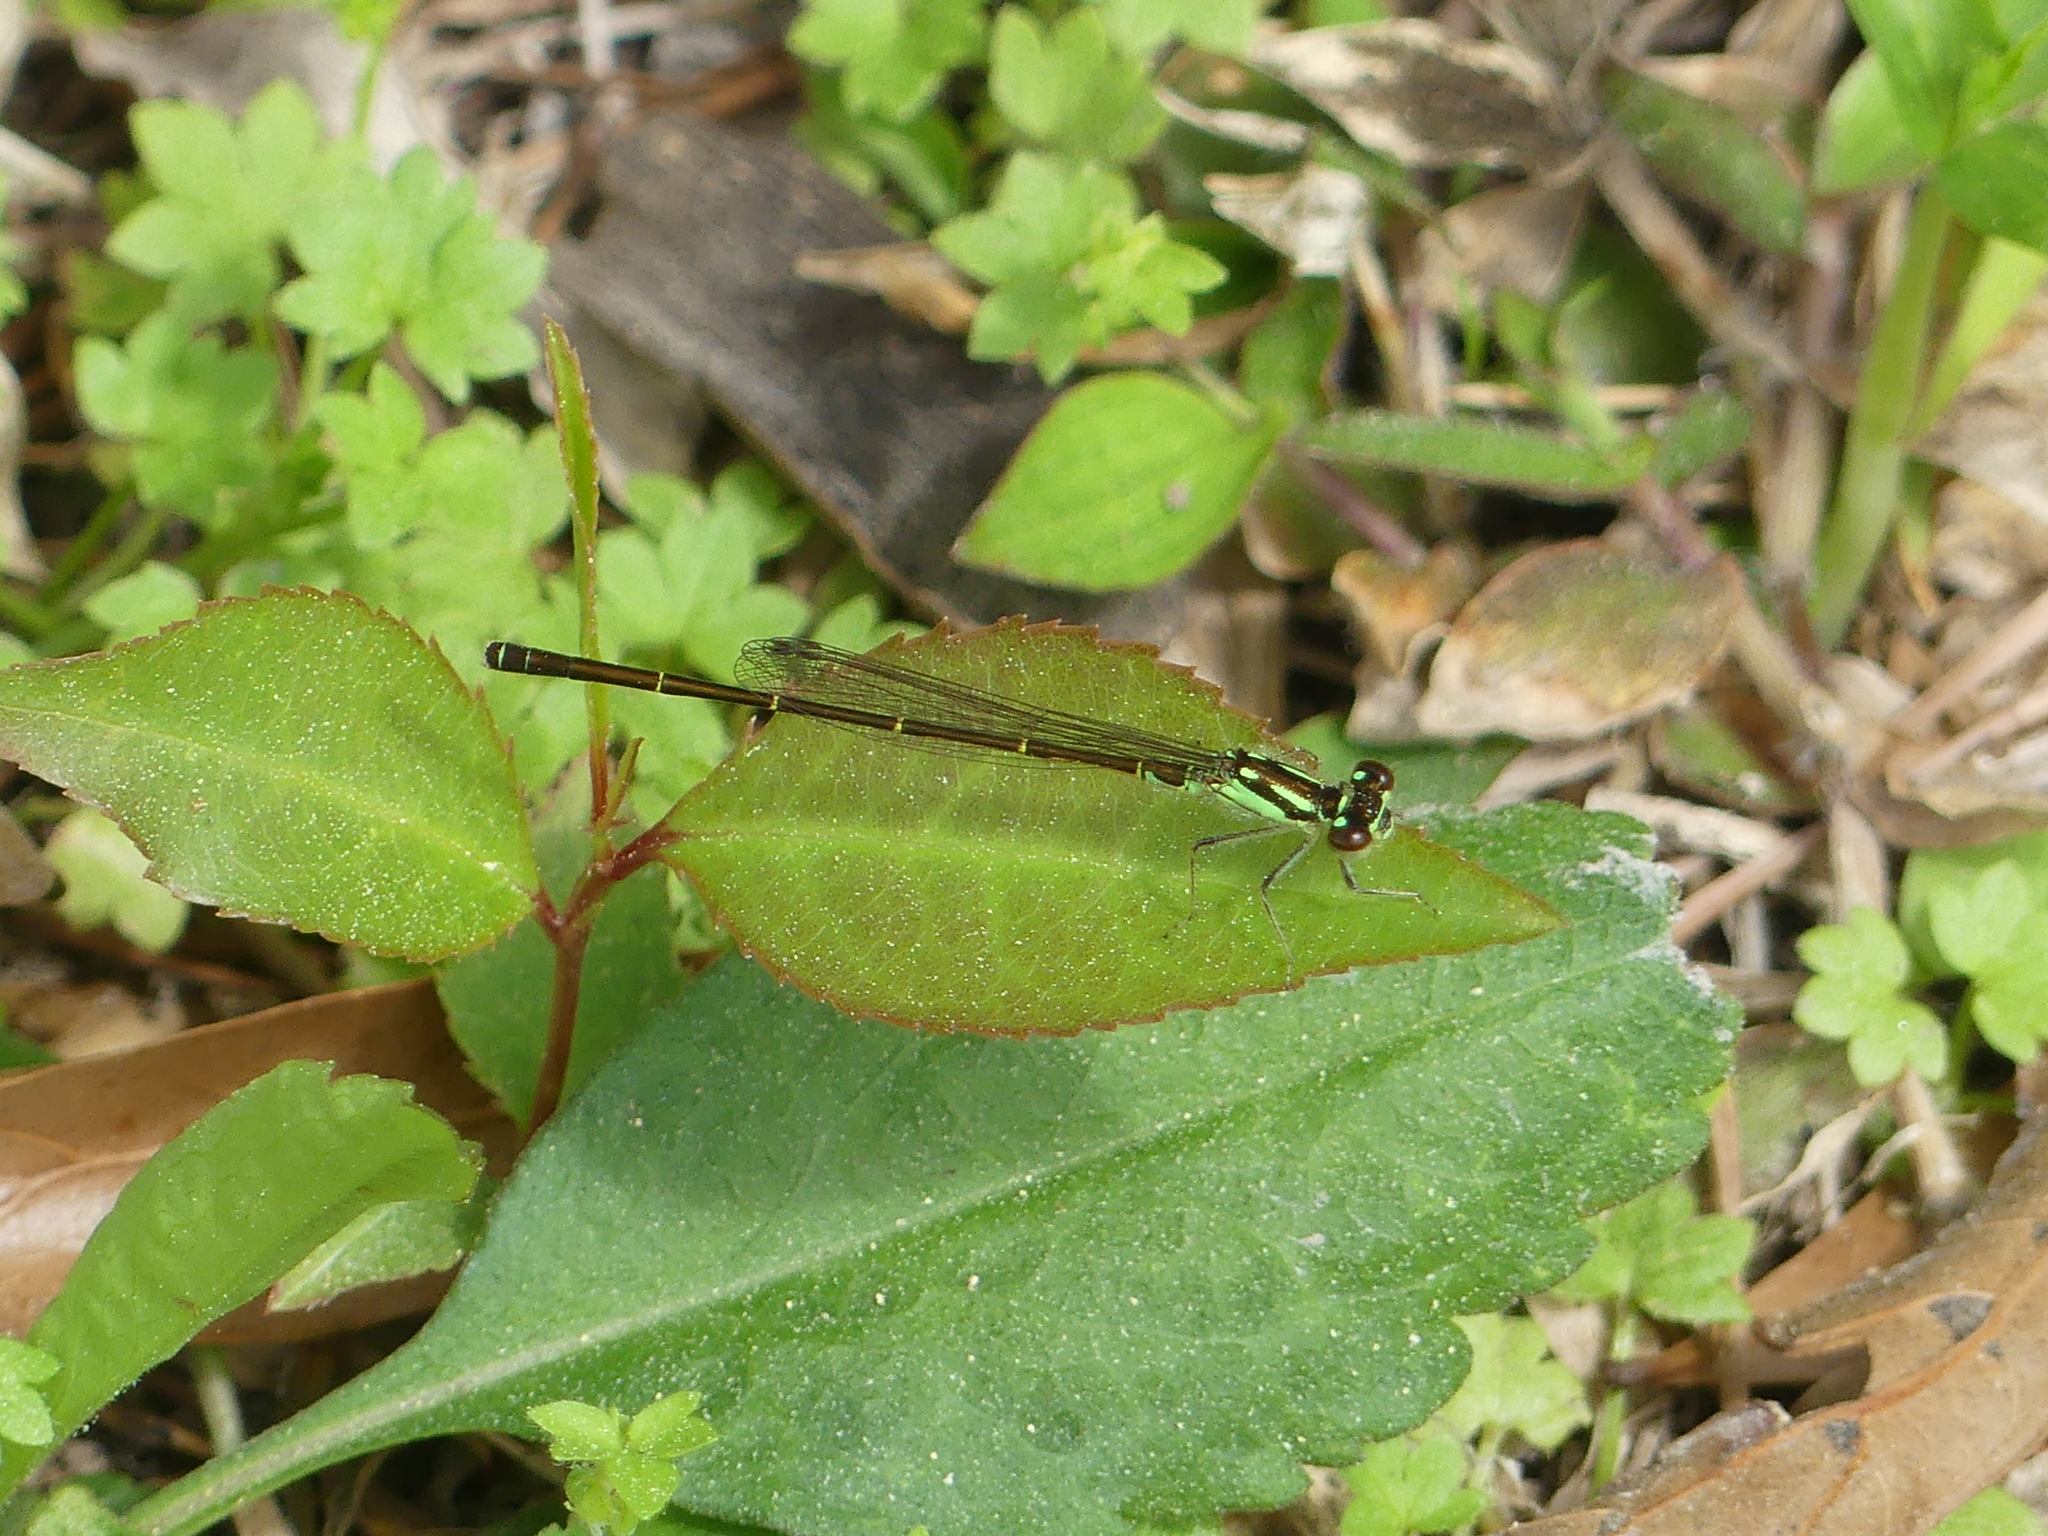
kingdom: Animalia
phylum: Arthropoda
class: Insecta
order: Odonata
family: Coenagrionidae
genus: Ischnura
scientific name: Ischnura posita
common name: Fragile forktail
